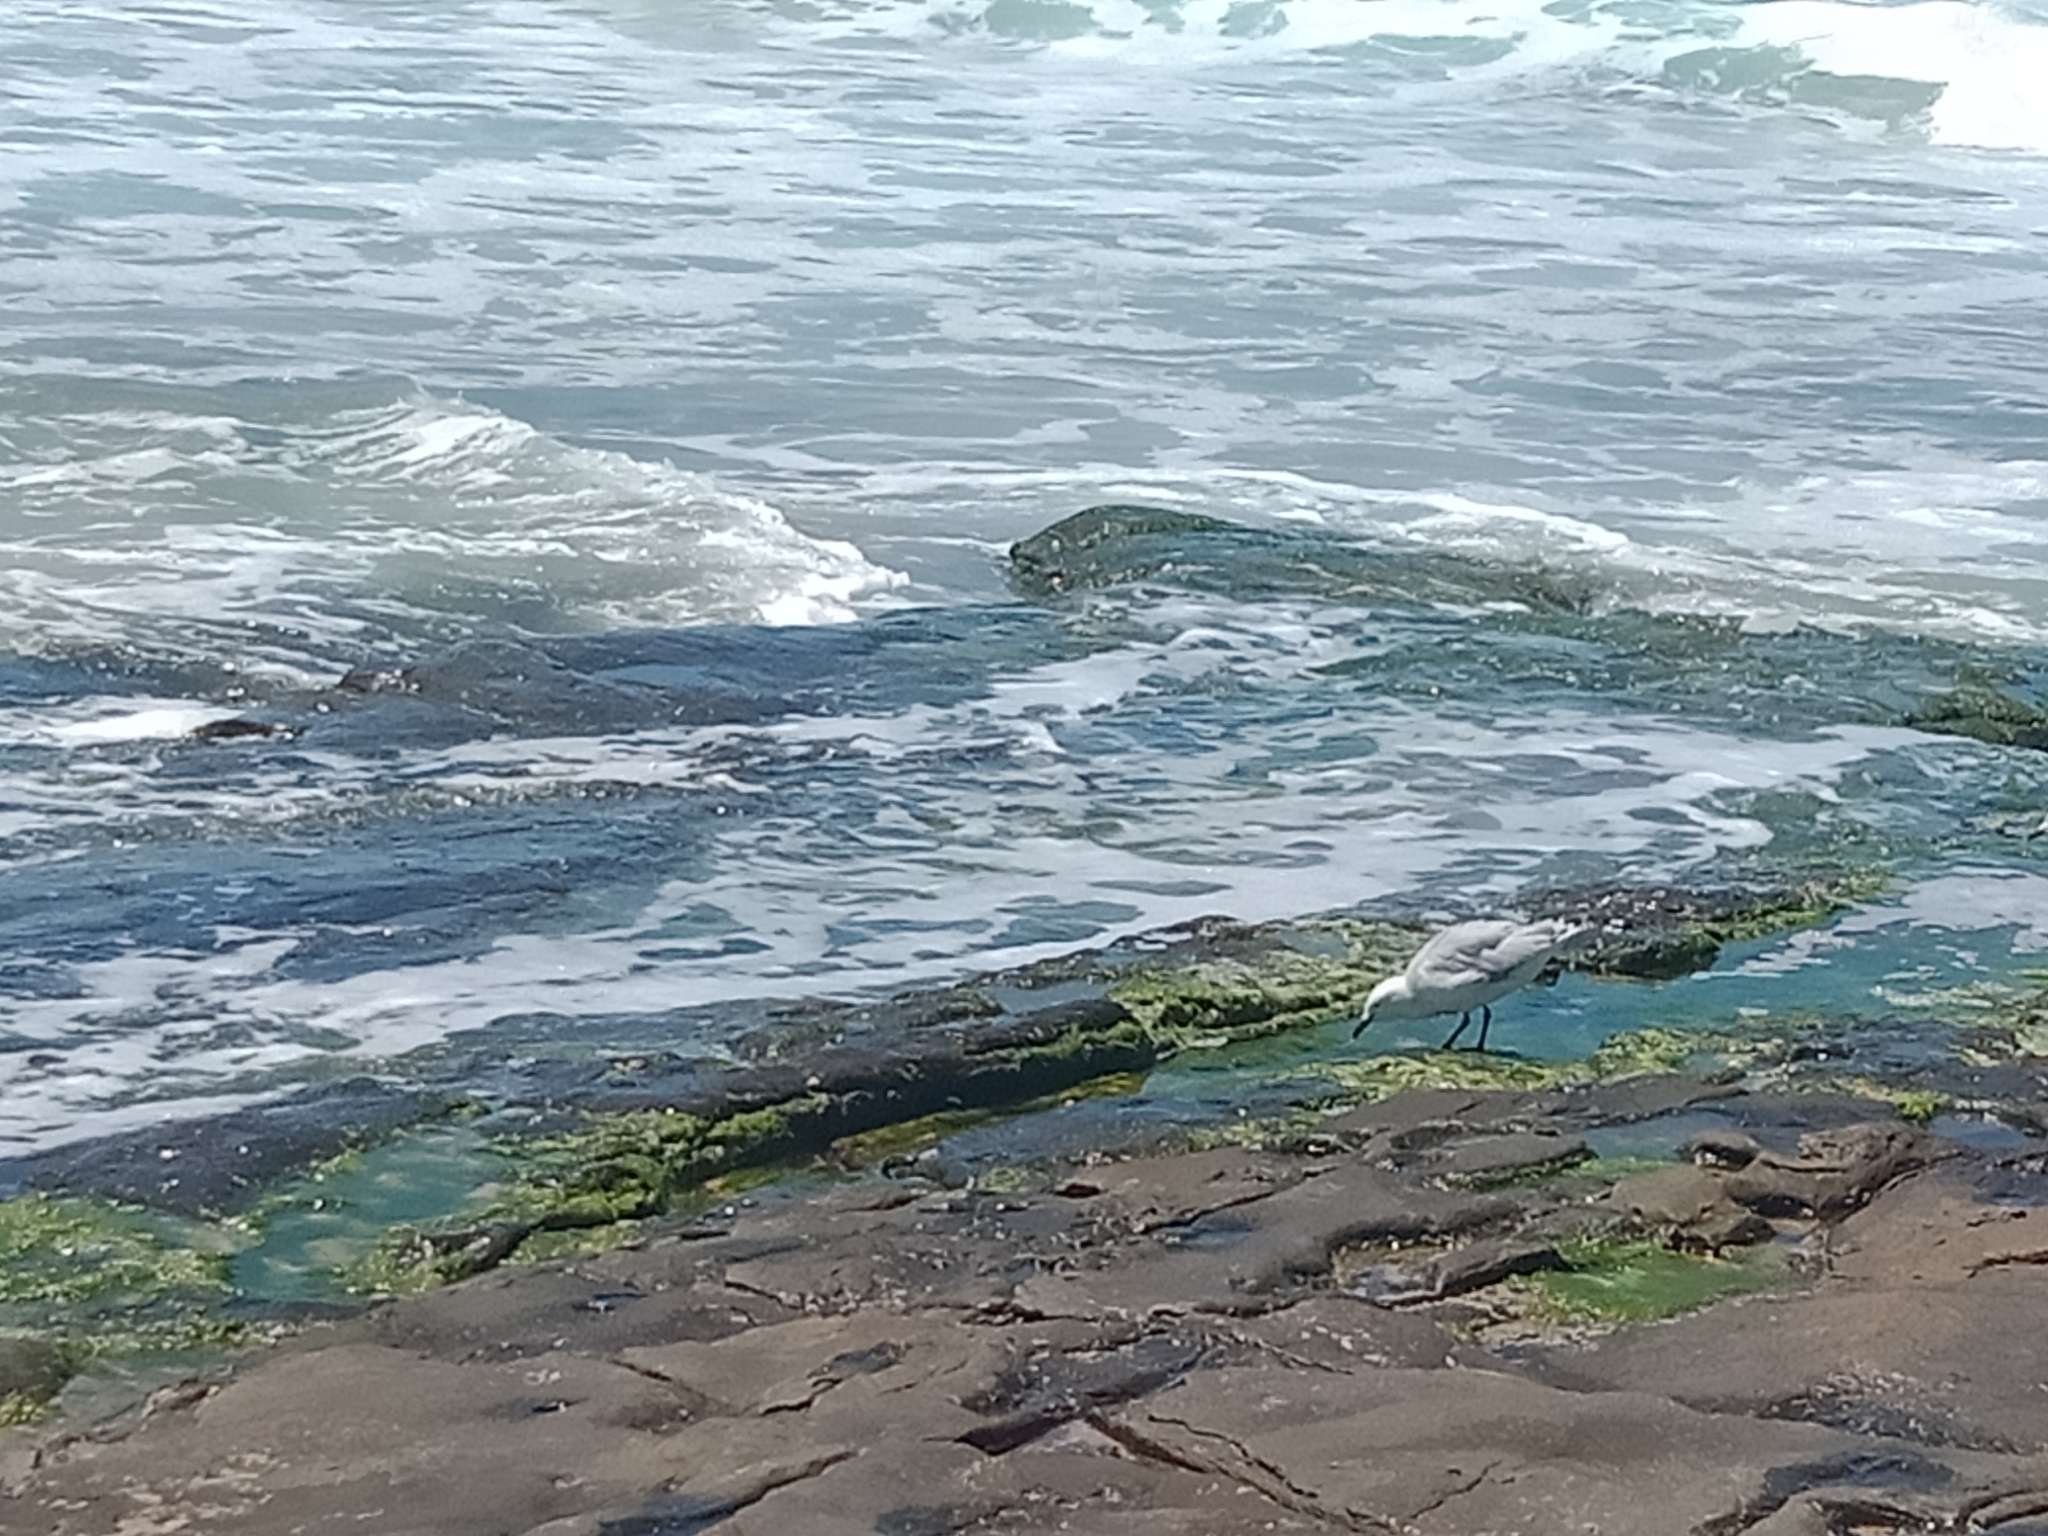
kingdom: Animalia
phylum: Chordata
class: Aves
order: Charadriiformes
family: Laridae
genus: Chroicocephalus
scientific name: Chroicocephalus novaehollandiae
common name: Silver gull
